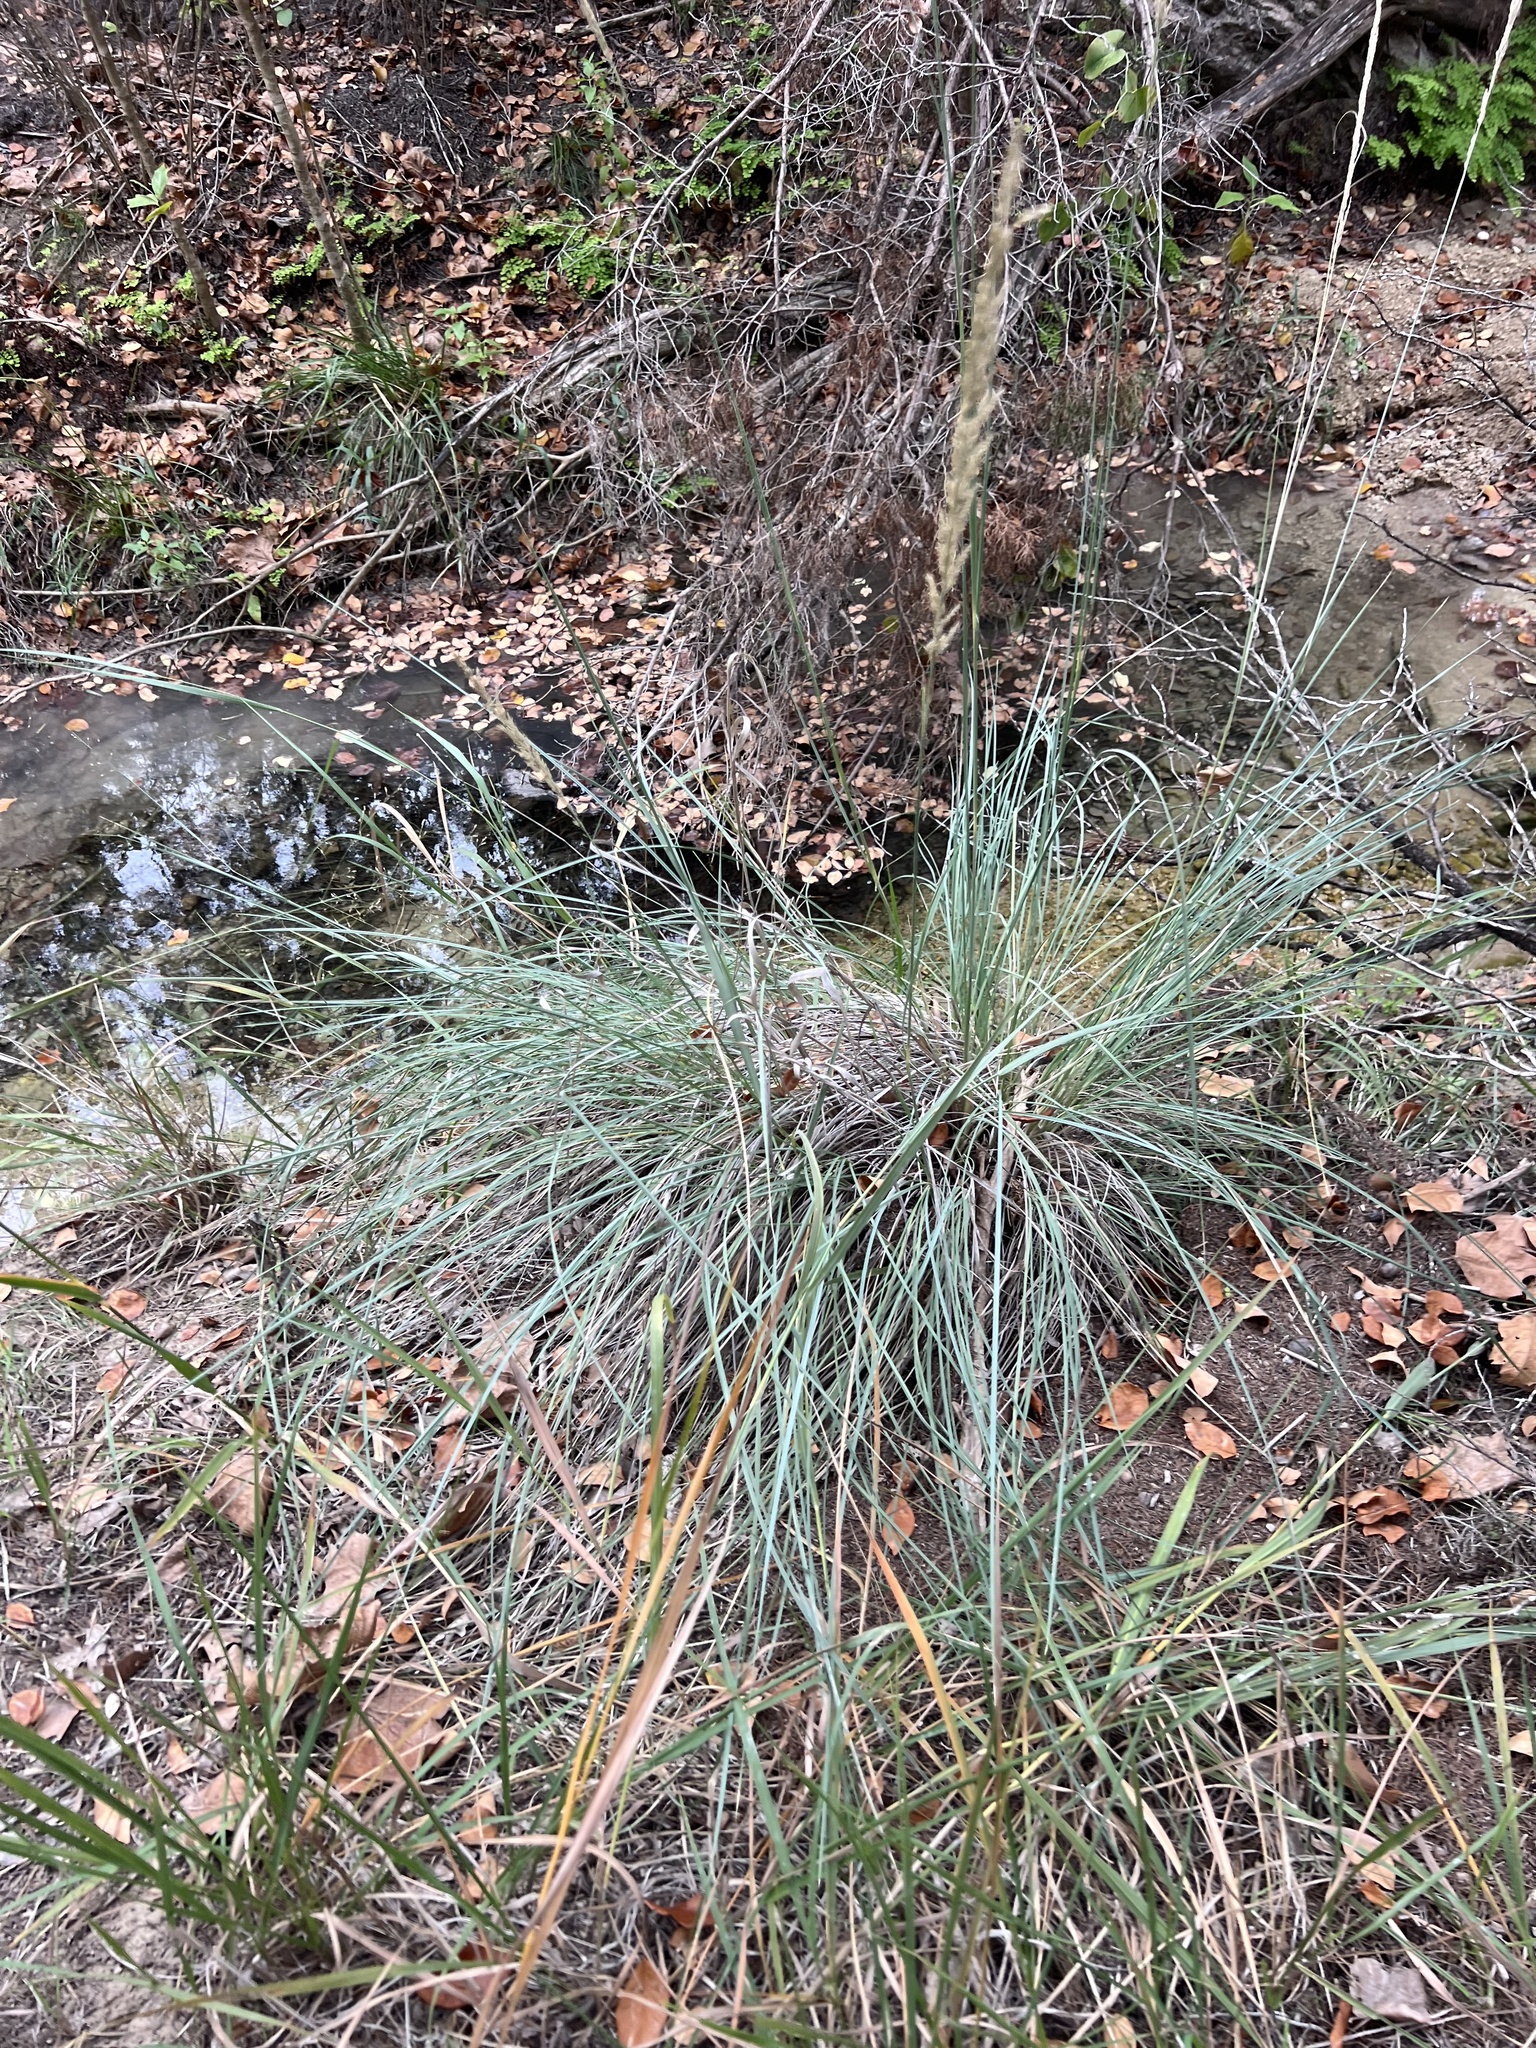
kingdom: Plantae
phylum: Tracheophyta
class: Liliopsida
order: Poales
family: Poaceae
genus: Muhlenbergia
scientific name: Muhlenbergia lindheimeri
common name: Lindheimer's muhly
